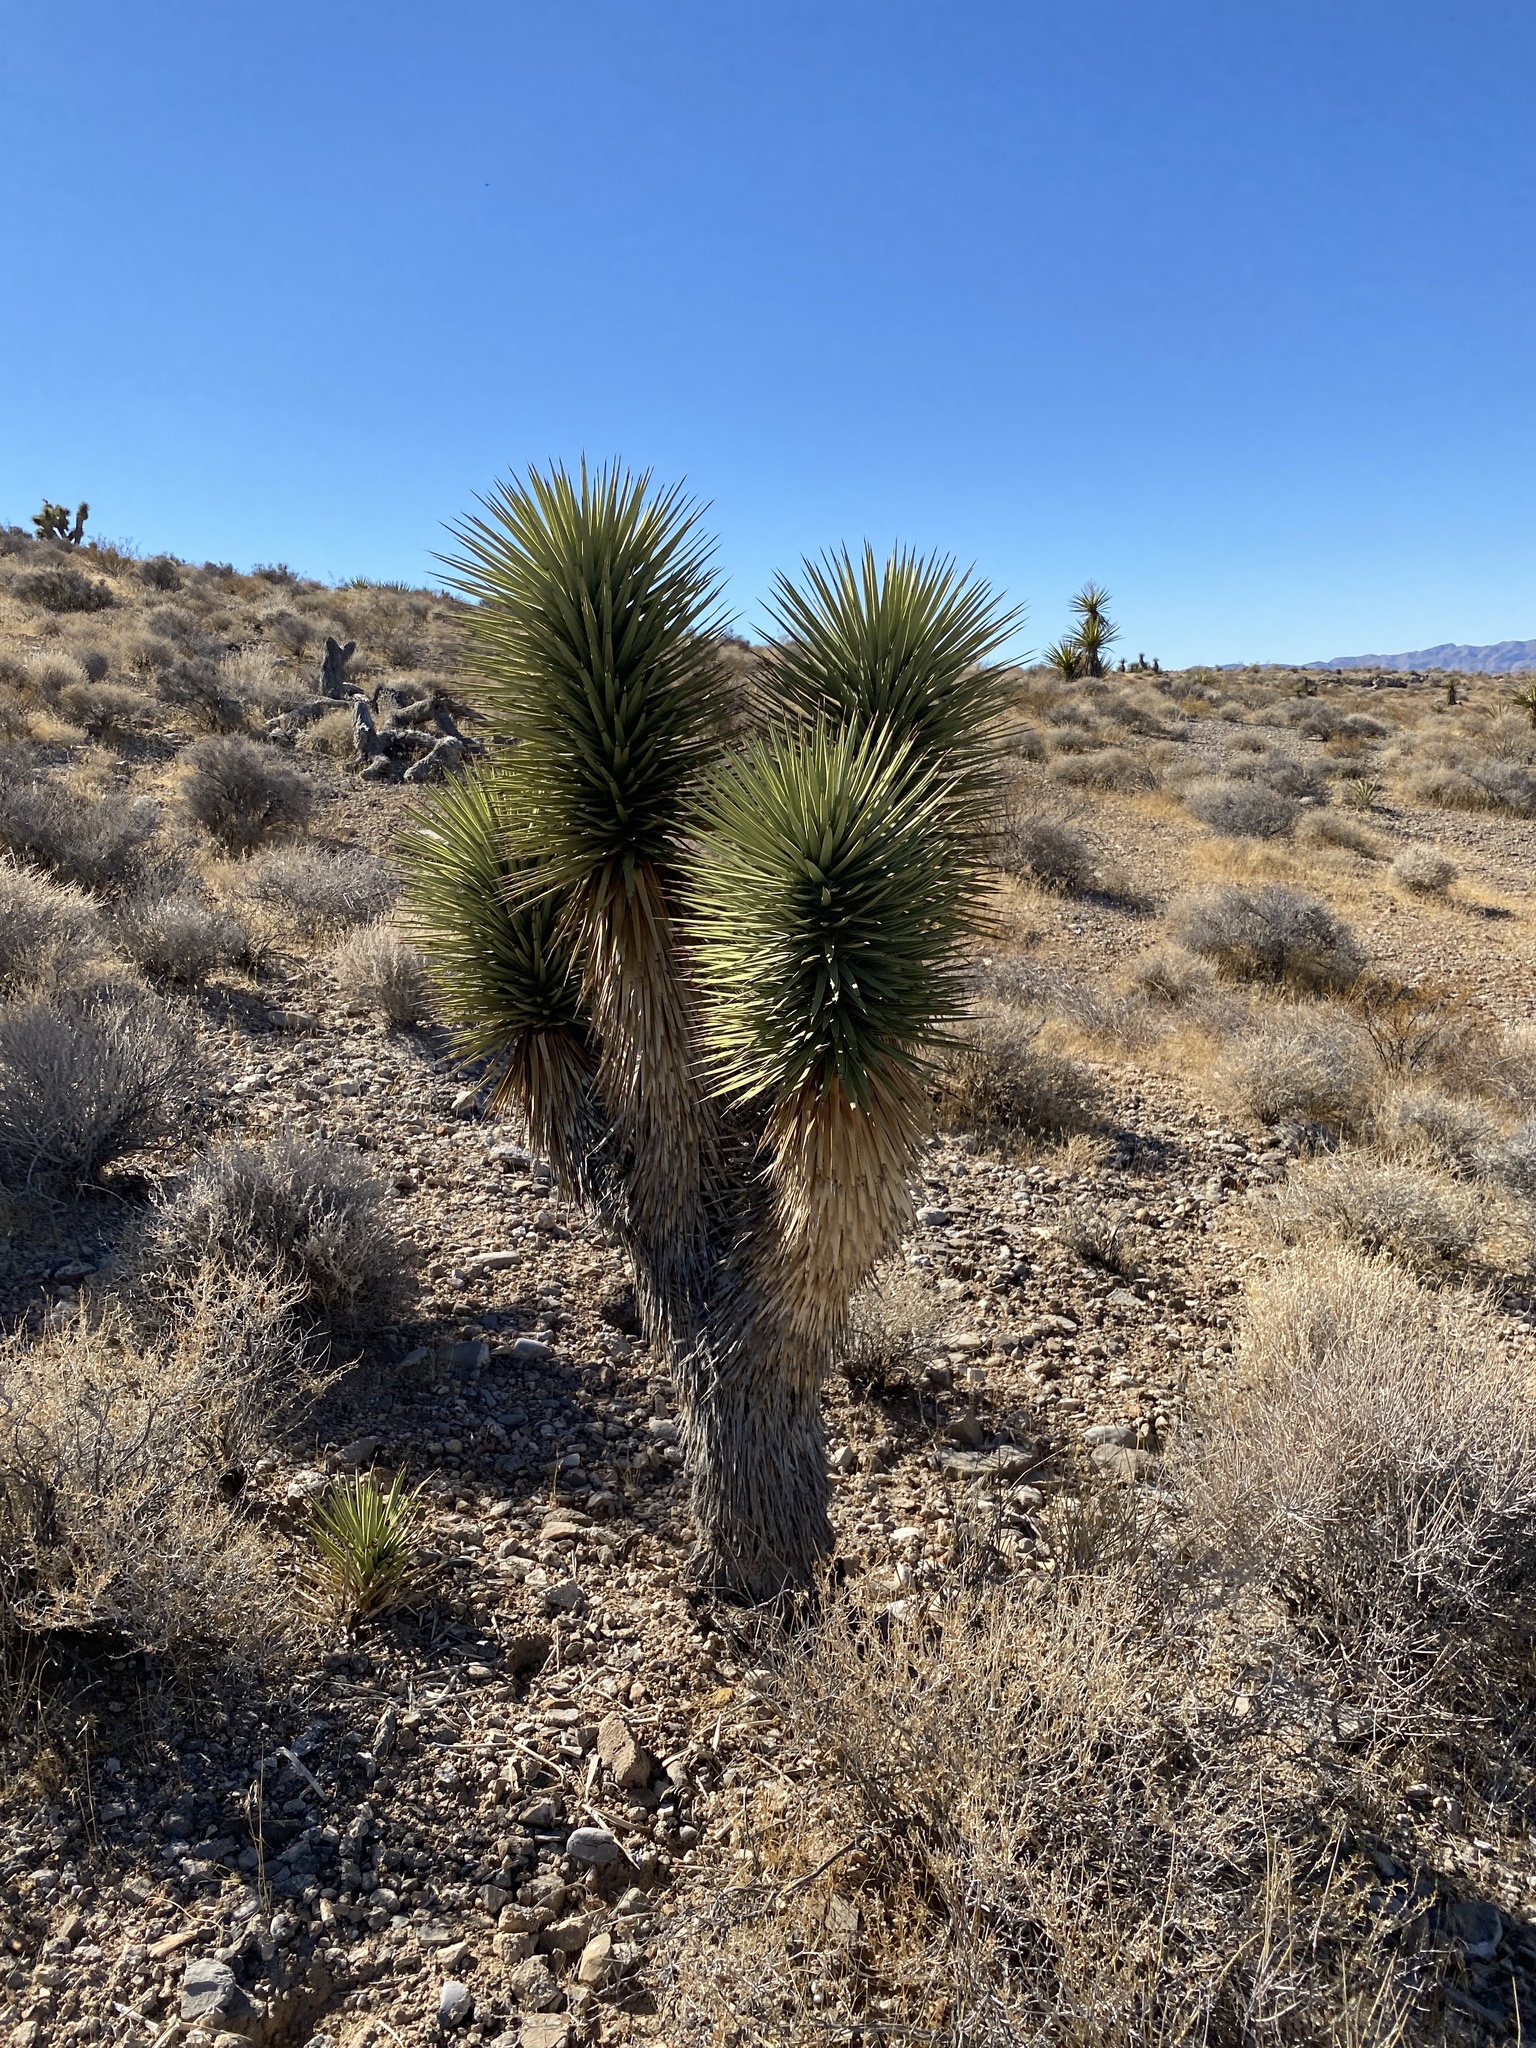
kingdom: Plantae
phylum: Tracheophyta
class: Liliopsida
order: Asparagales
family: Asparagaceae
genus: Yucca
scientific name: Yucca brevifolia
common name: Joshua tree
